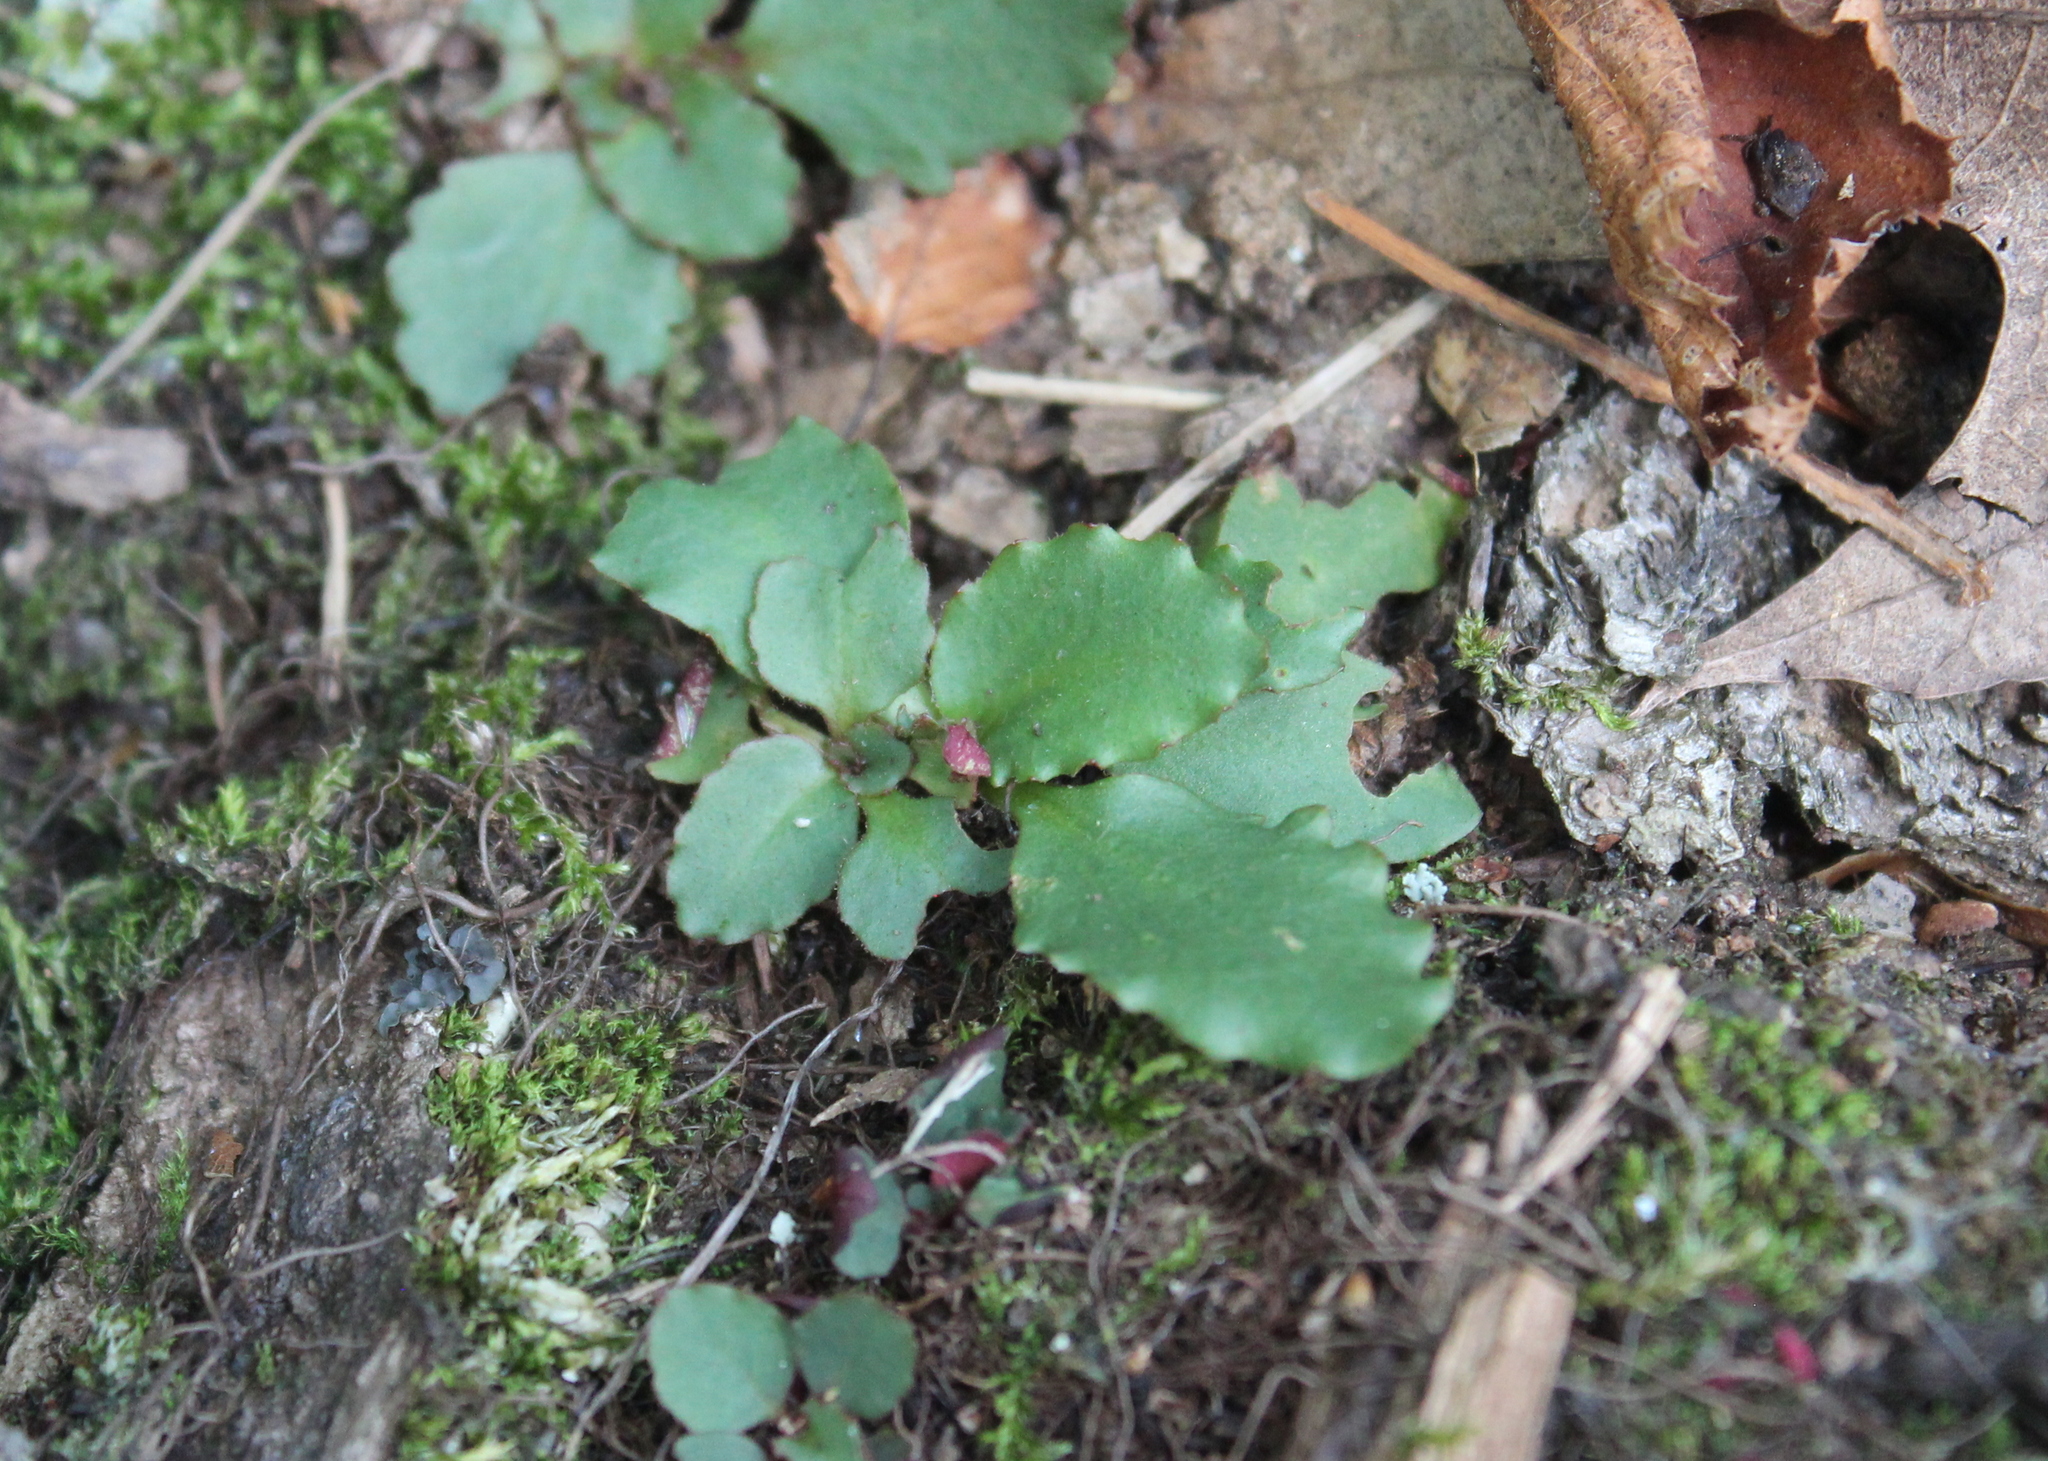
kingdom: Plantae
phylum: Tracheophyta
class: Magnoliopsida
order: Saxifragales
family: Saxifragaceae
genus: Micranthes
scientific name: Micranthes virginiensis
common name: Early saxifrage
